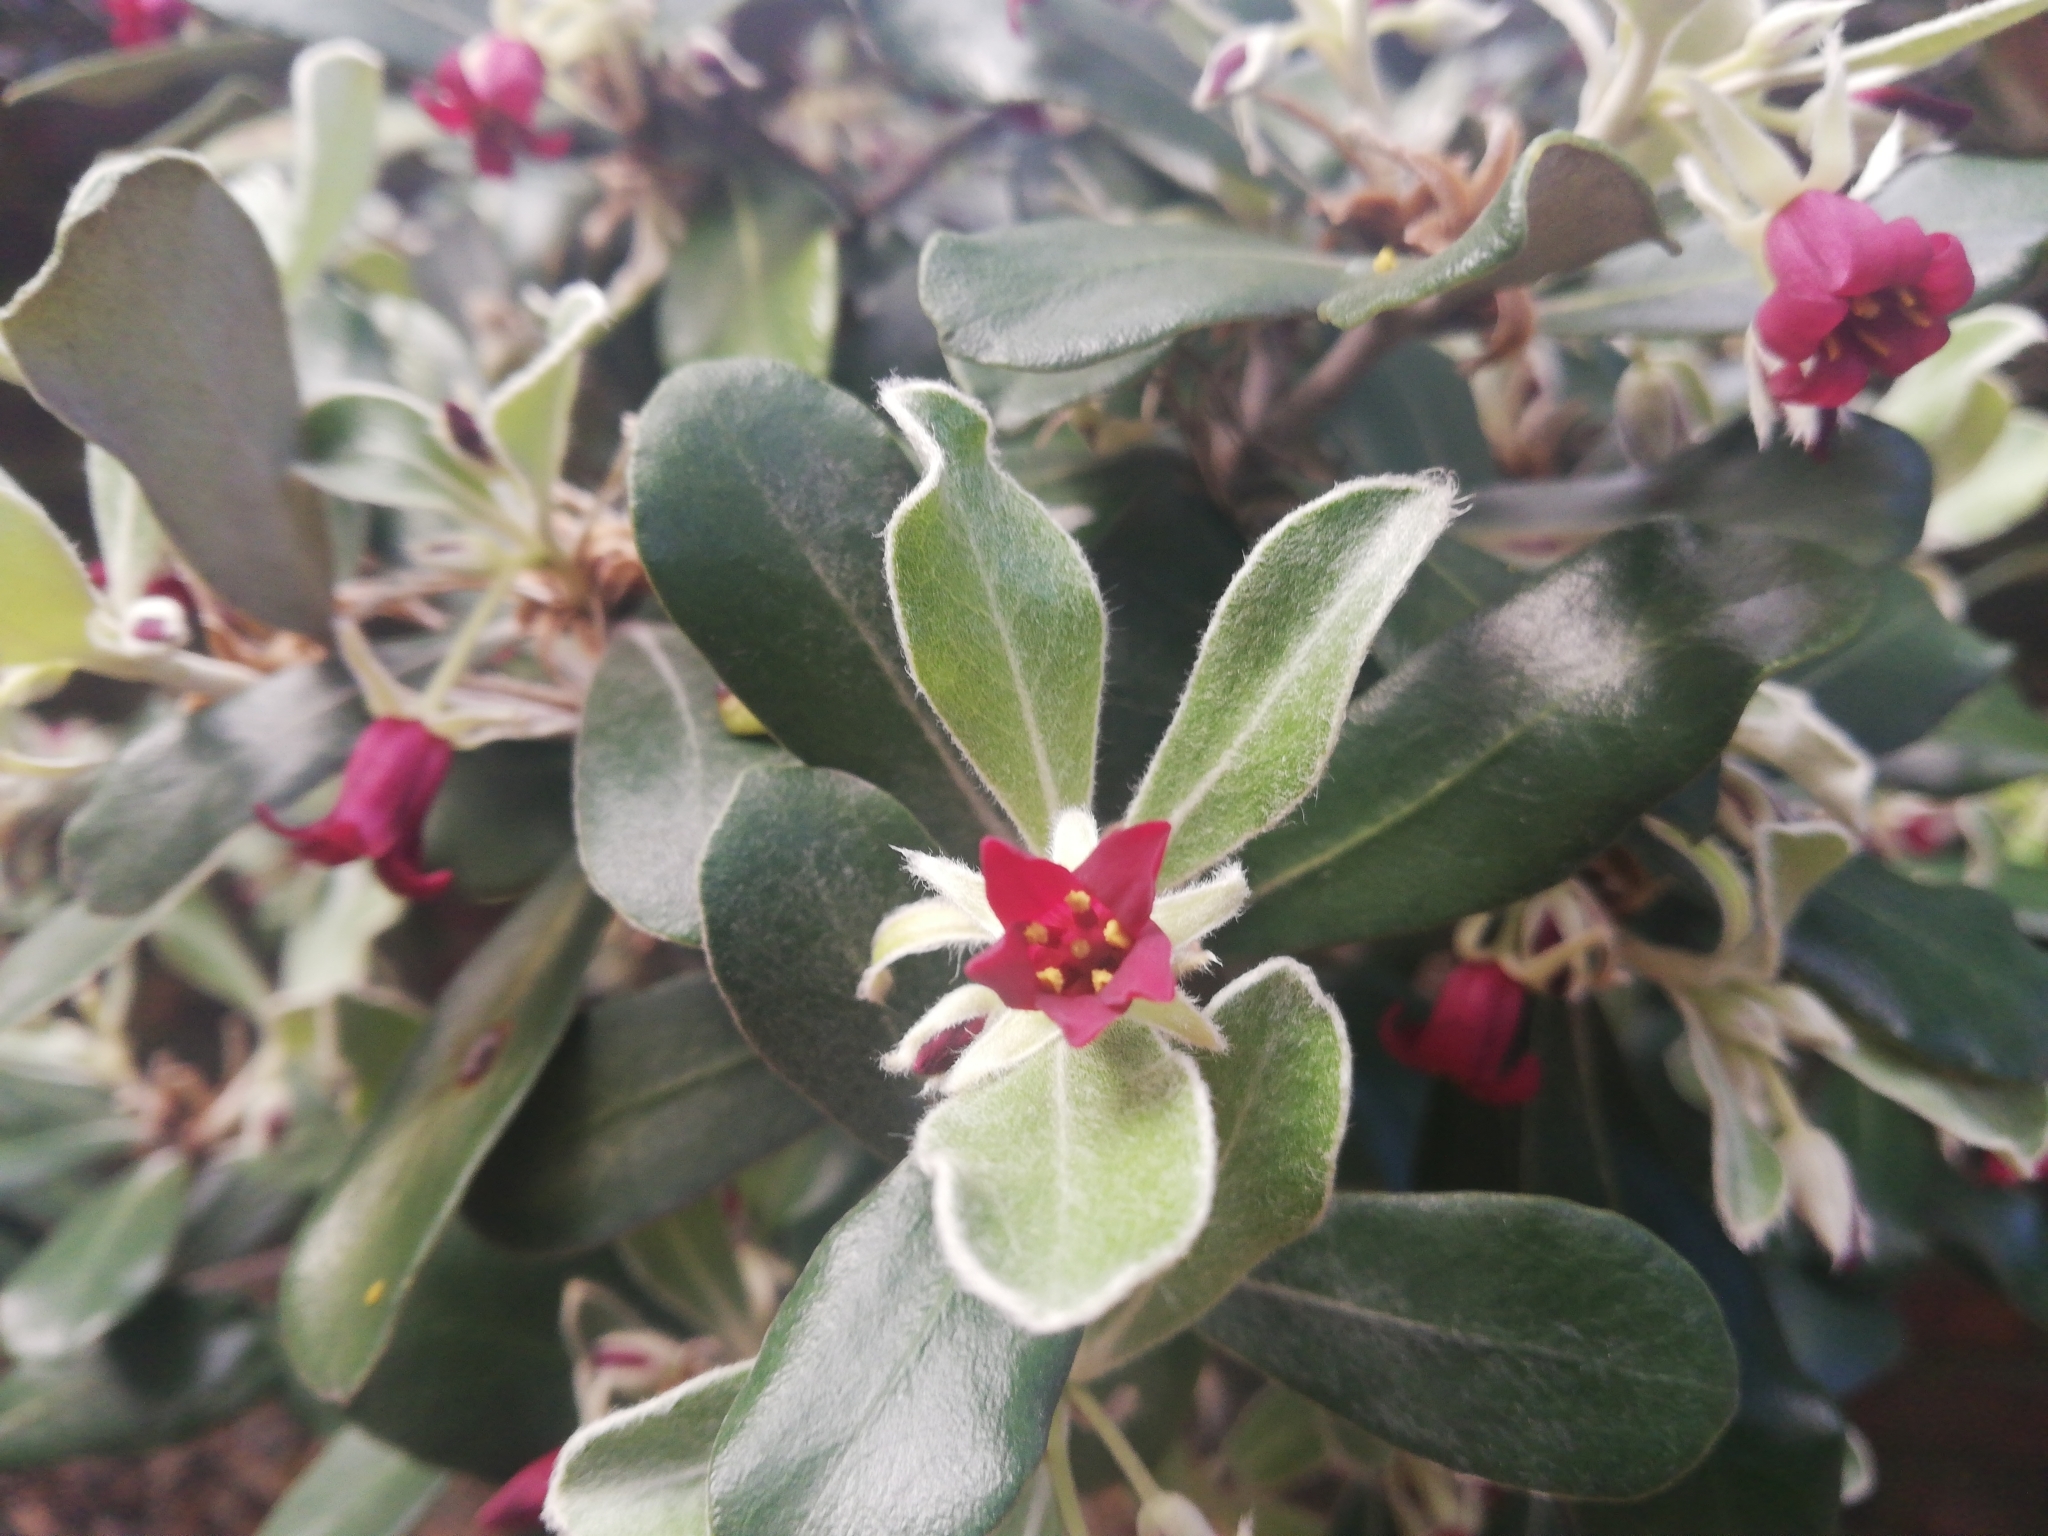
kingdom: Plantae
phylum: Tracheophyta
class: Magnoliopsida
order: Apiales
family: Pittosporaceae
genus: Pittosporum
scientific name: Pittosporum crassifolium
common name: Karo
